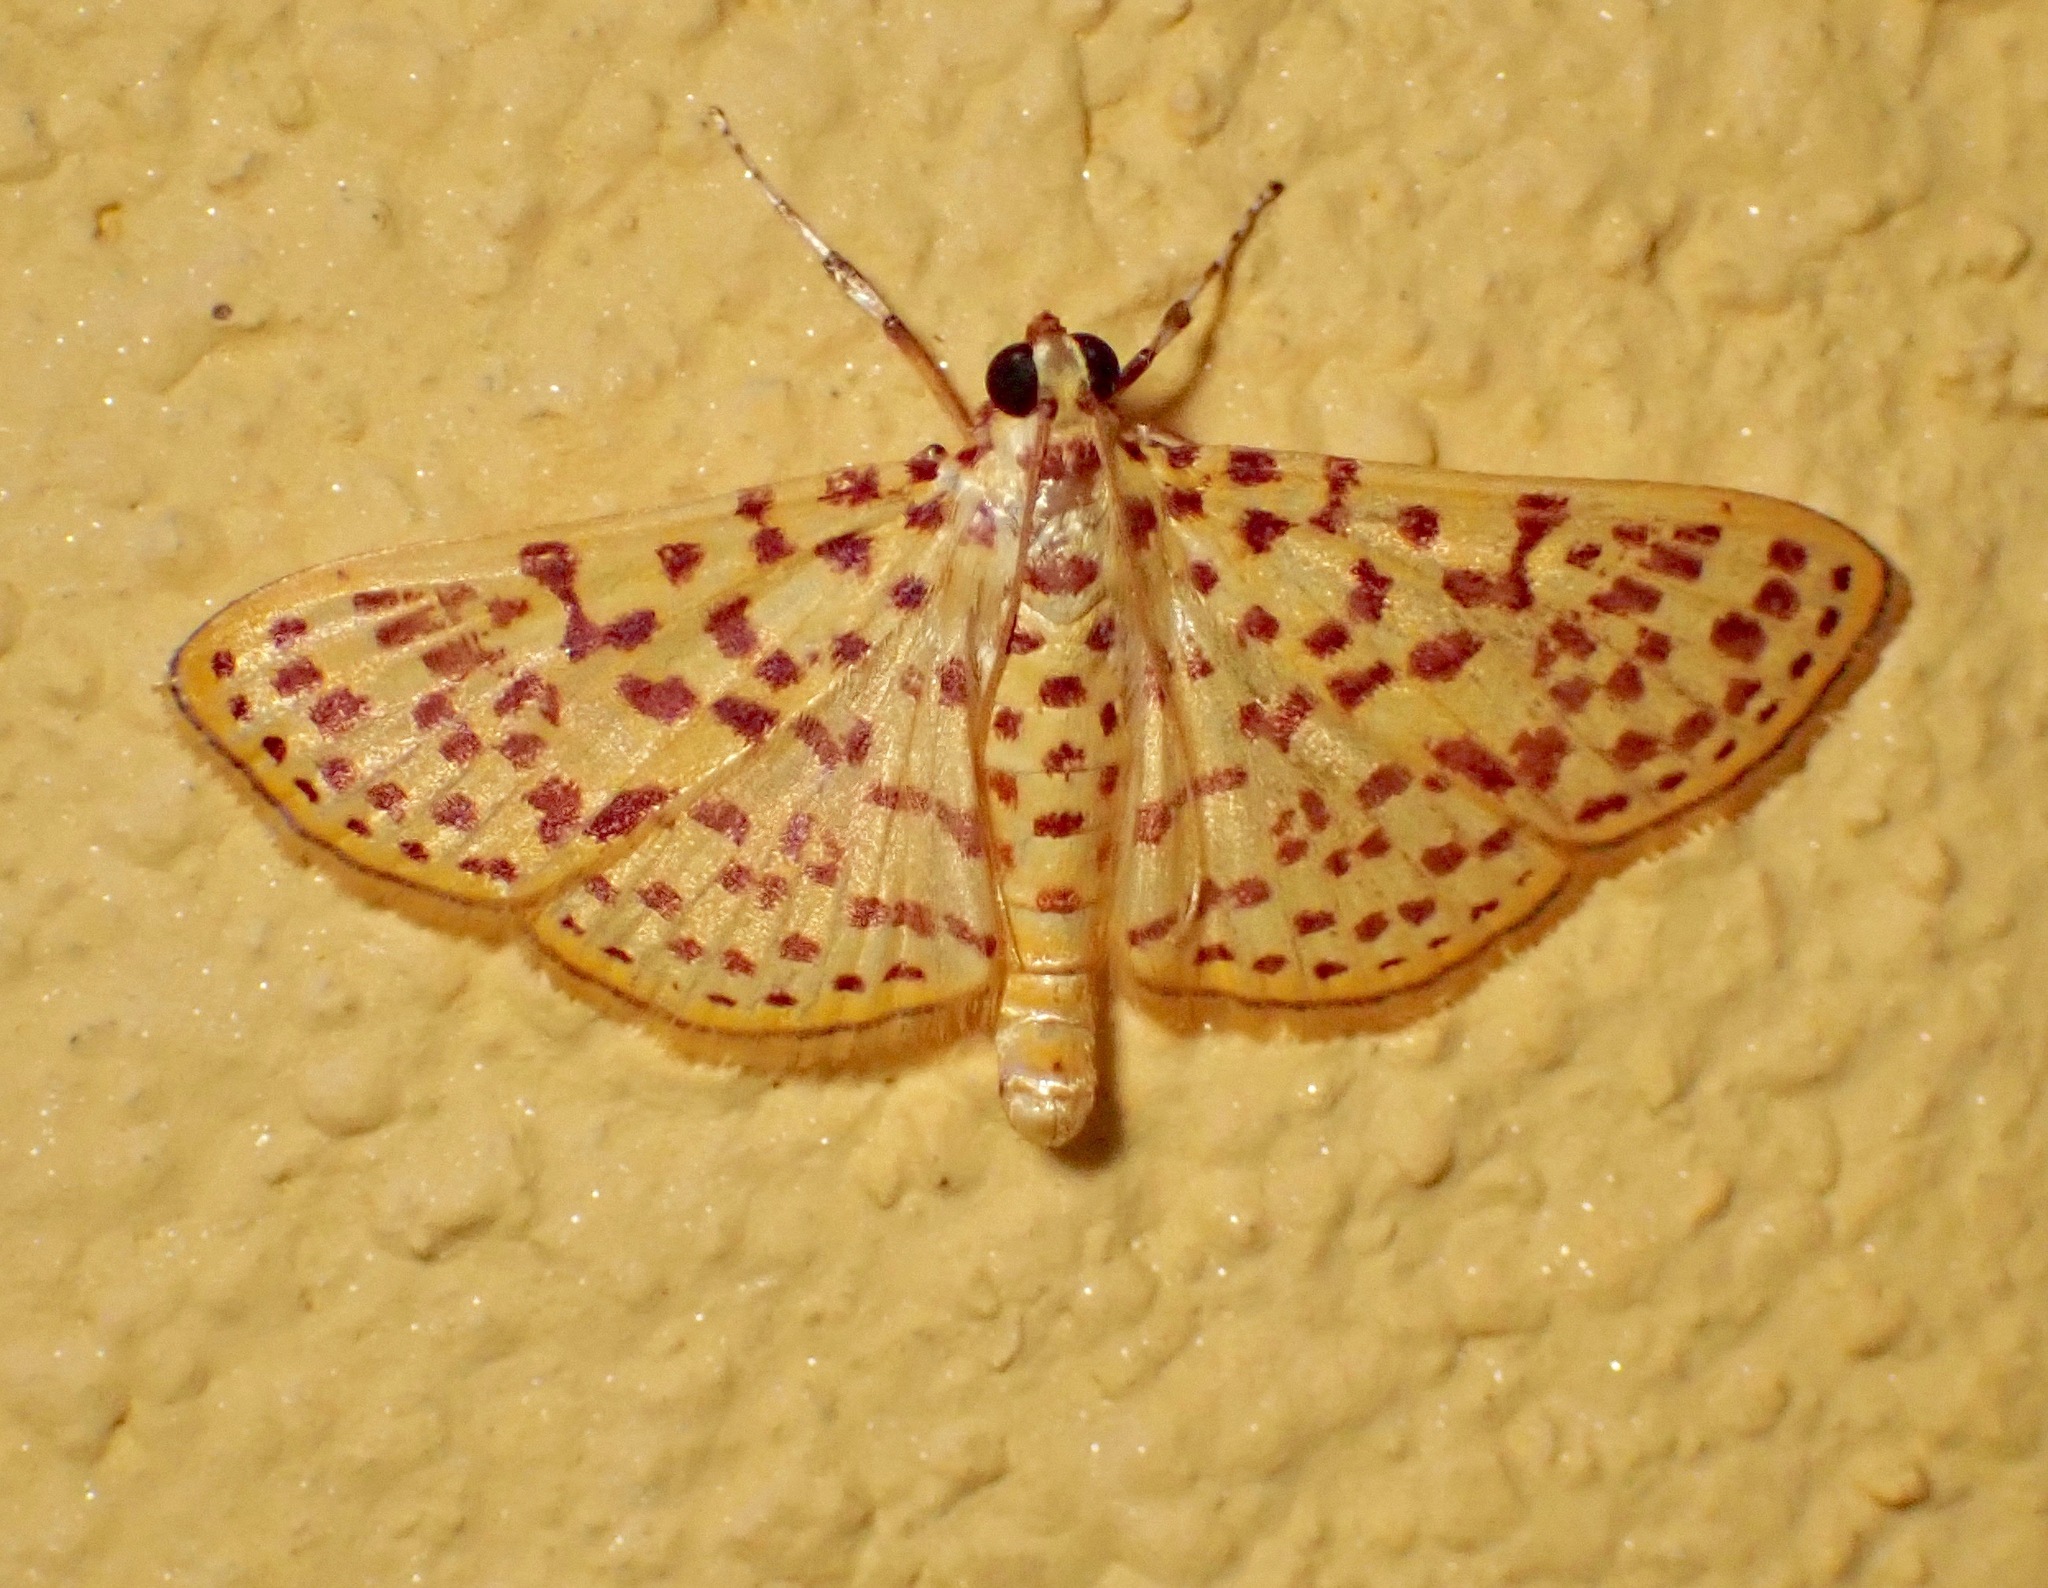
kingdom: Animalia
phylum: Arthropoda
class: Insecta
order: Lepidoptera
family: Crambidae
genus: Polygrammodes
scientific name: Polygrammodes elevata
